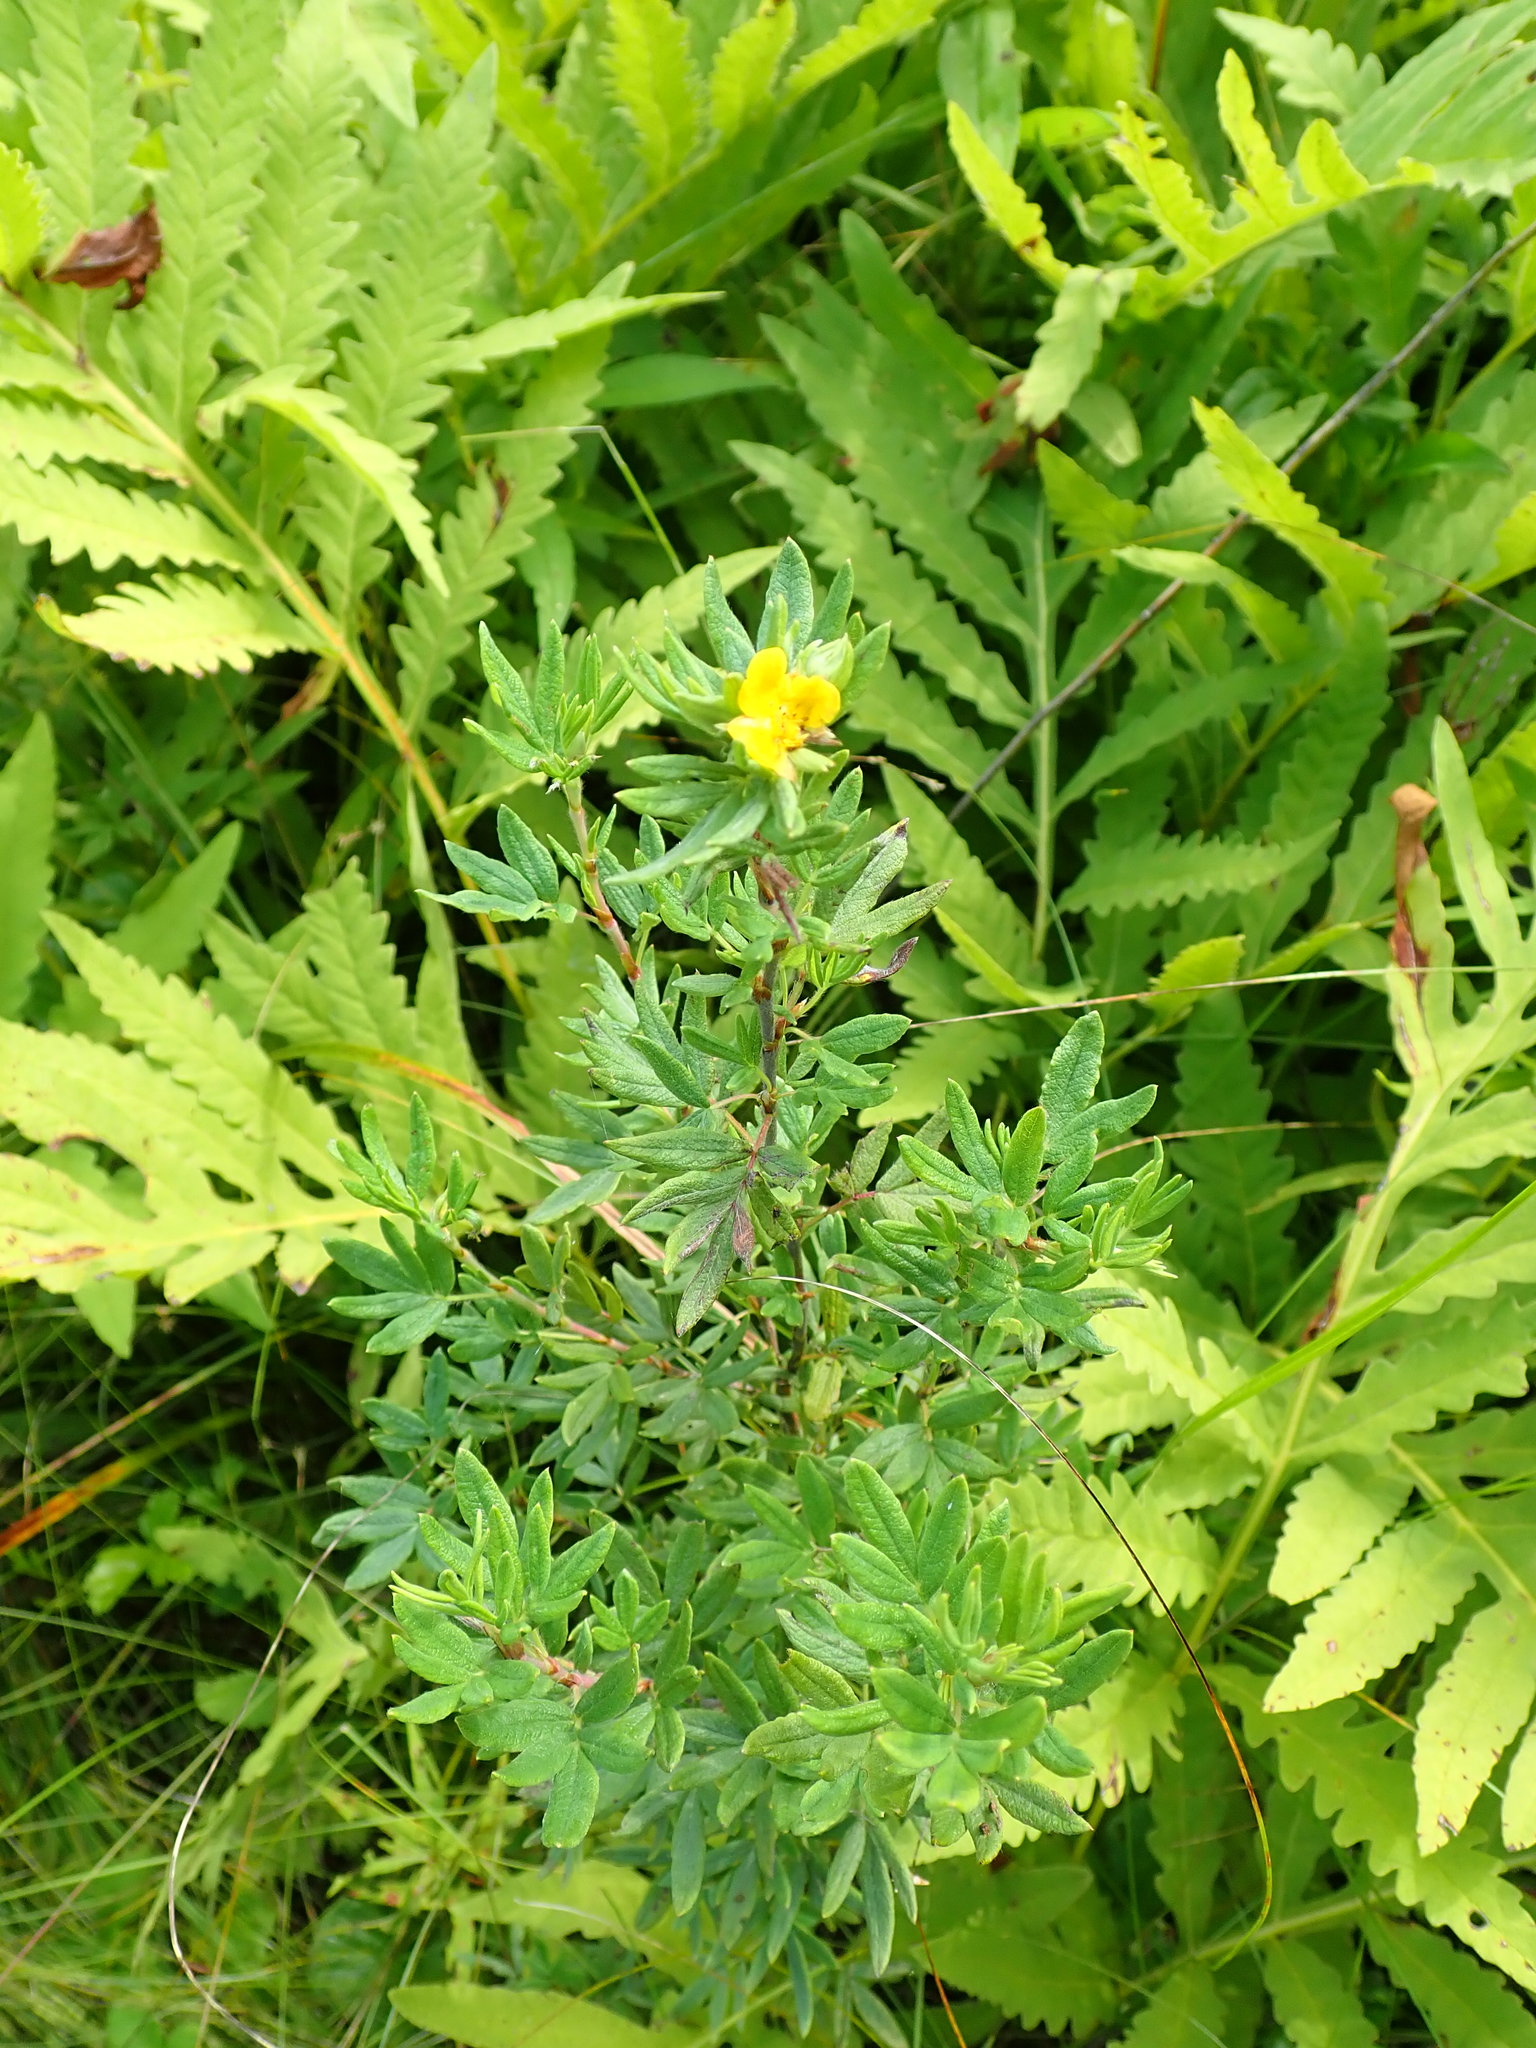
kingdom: Plantae
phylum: Tracheophyta
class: Magnoliopsida
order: Rosales
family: Rosaceae
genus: Dasiphora
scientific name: Dasiphora fruticosa
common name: Shrubby cinquefoil
